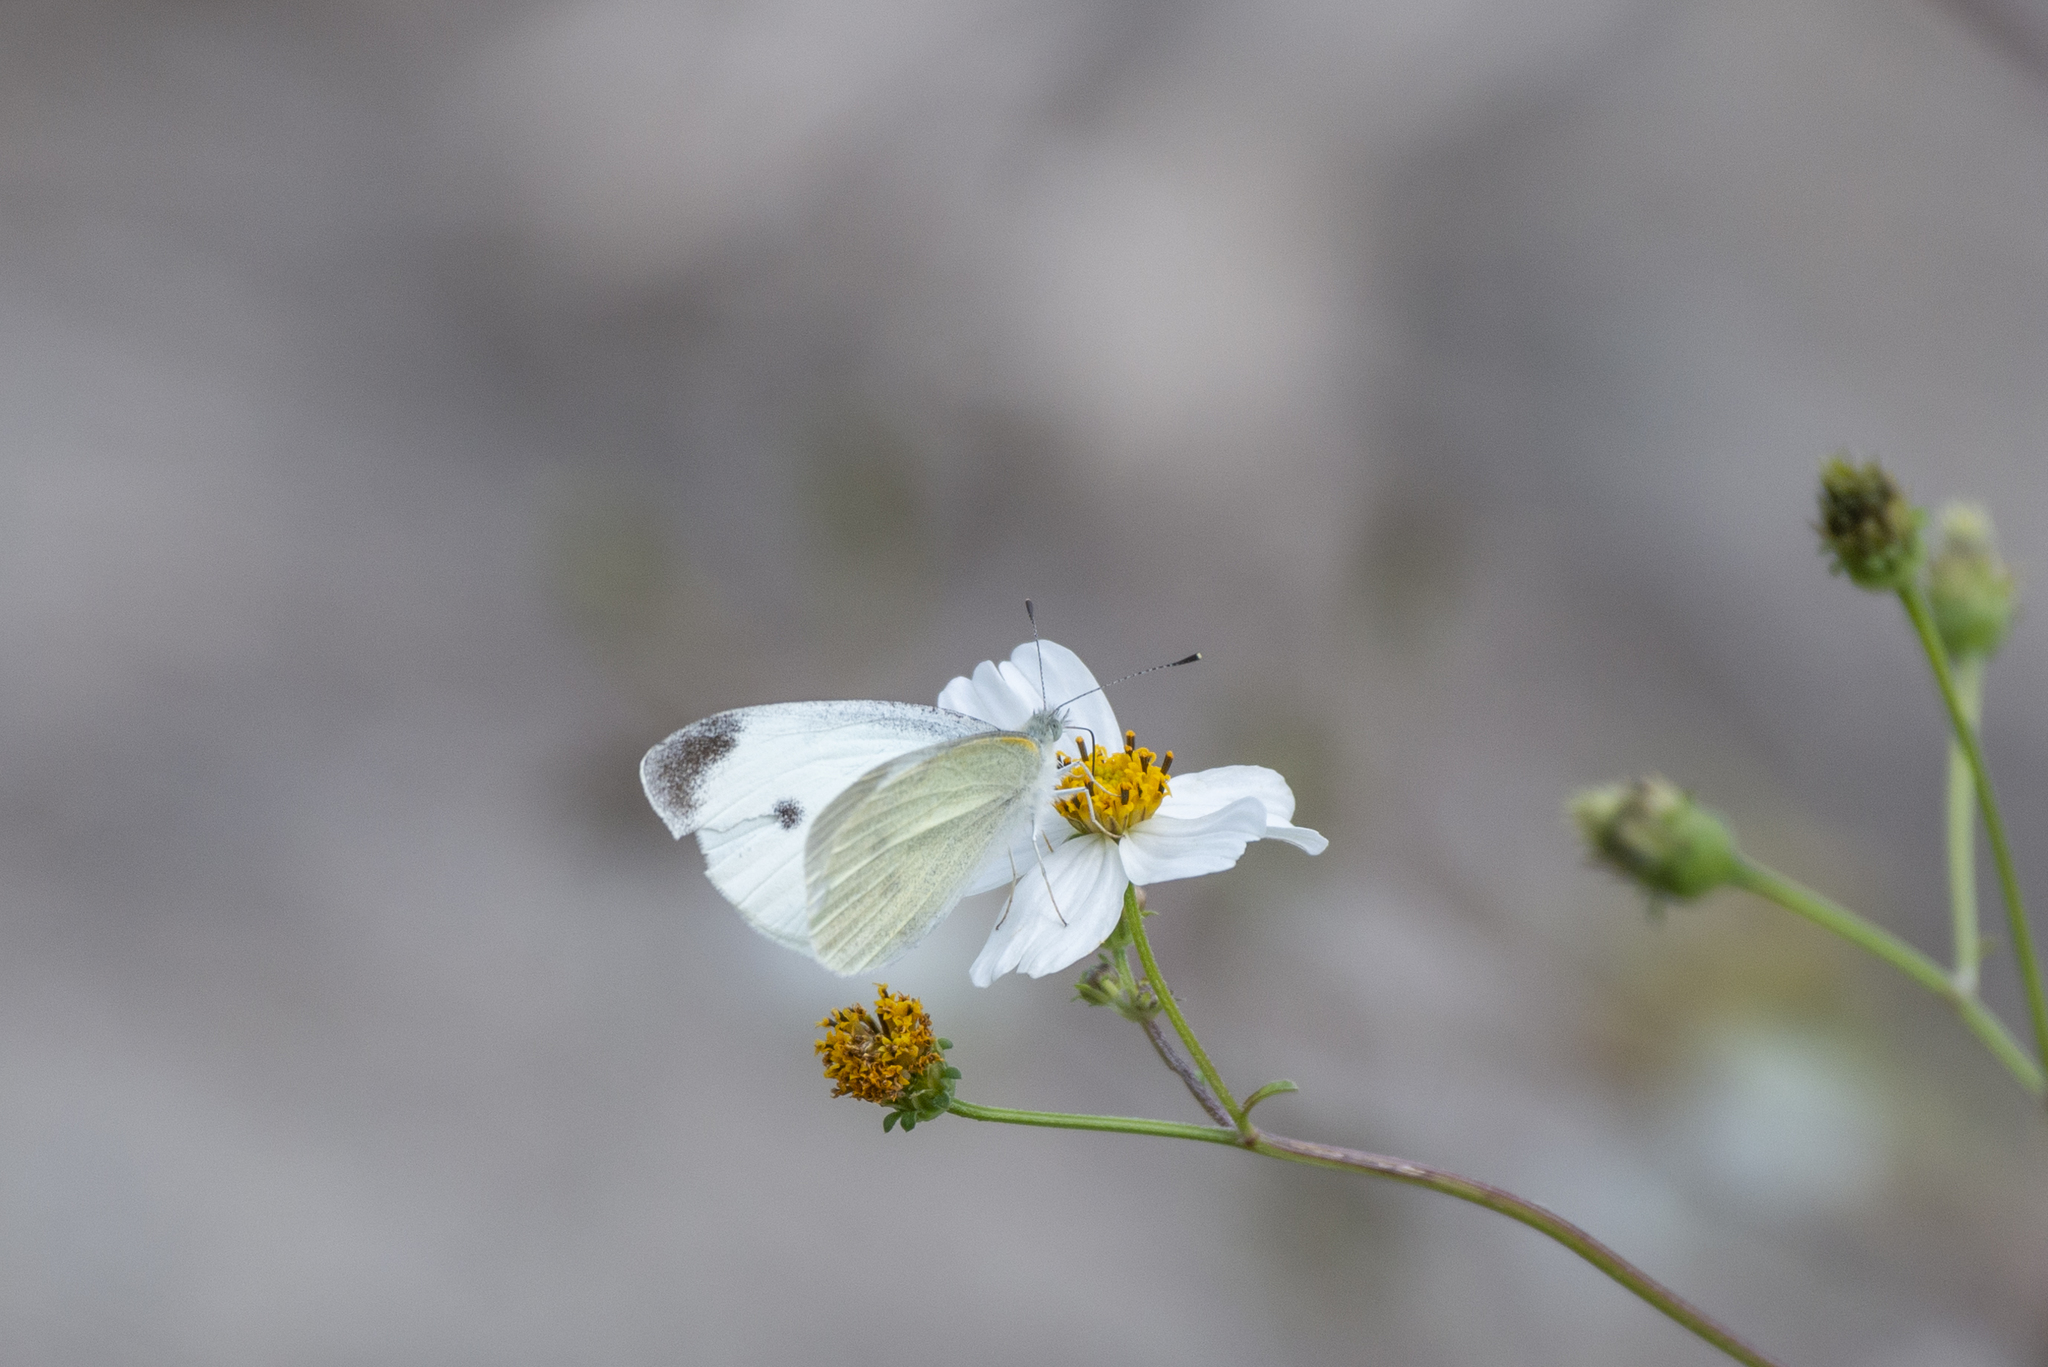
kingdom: Animalia
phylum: Arthropoda
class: Insecta
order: Lepidoptera
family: Pieridae
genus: Pieris
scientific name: Pieris rapae
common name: Small white
